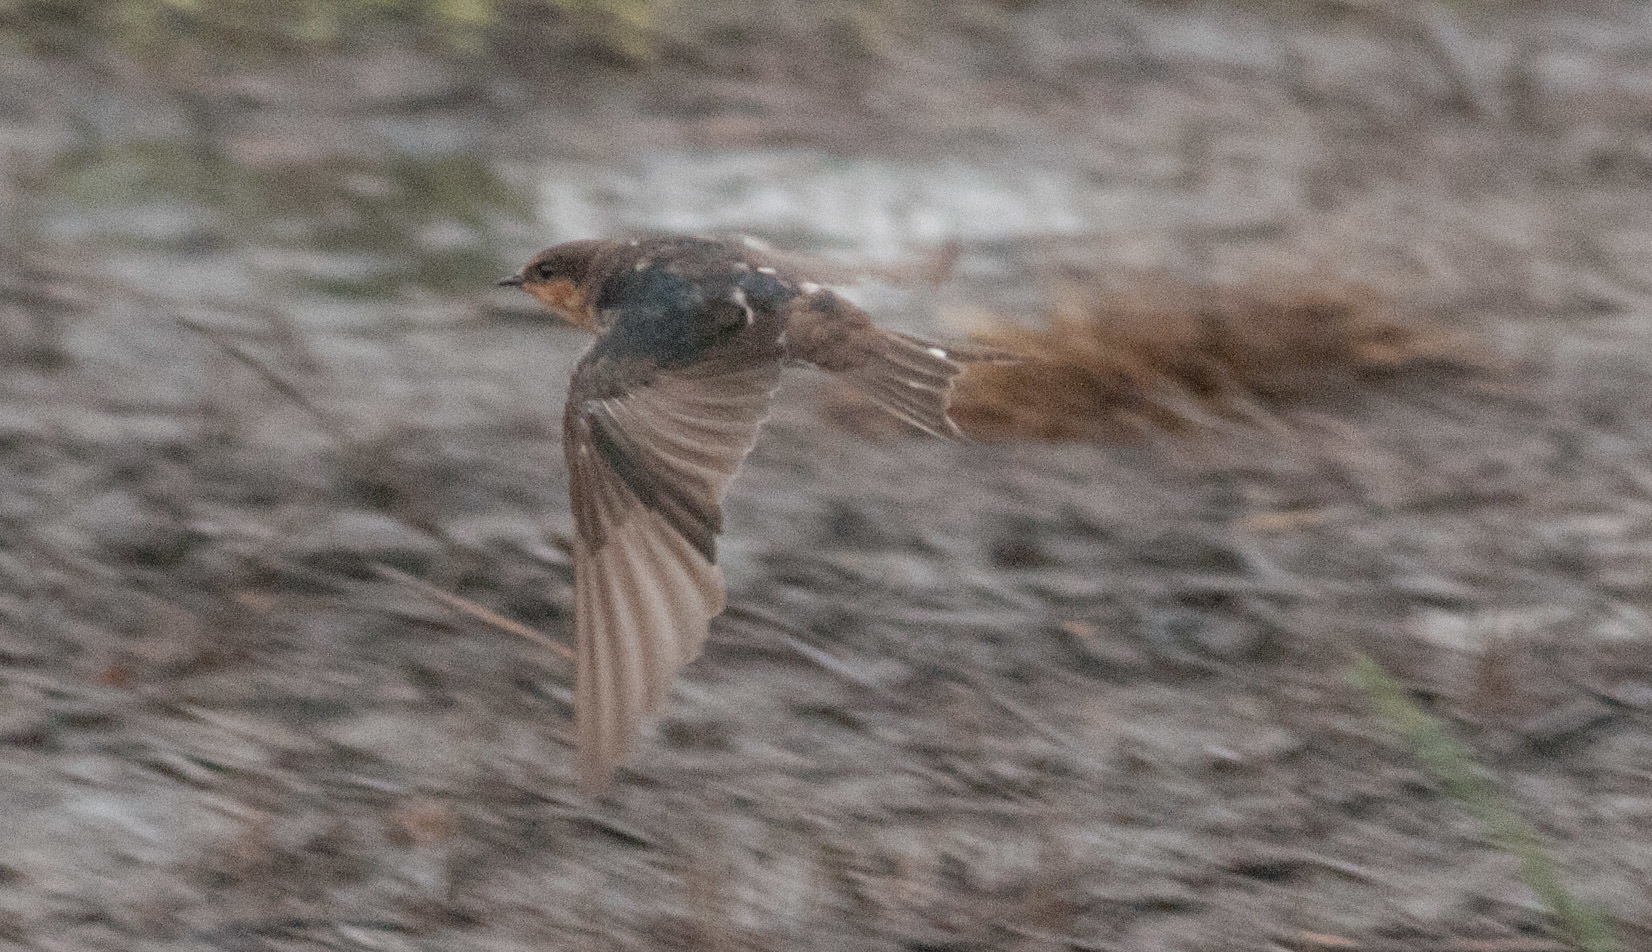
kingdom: Animalia
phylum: Chordata
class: Aves
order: Passeriformes
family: Hirundinidae
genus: Hirundo
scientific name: Hirundo neoxena
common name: Welcome swallow
